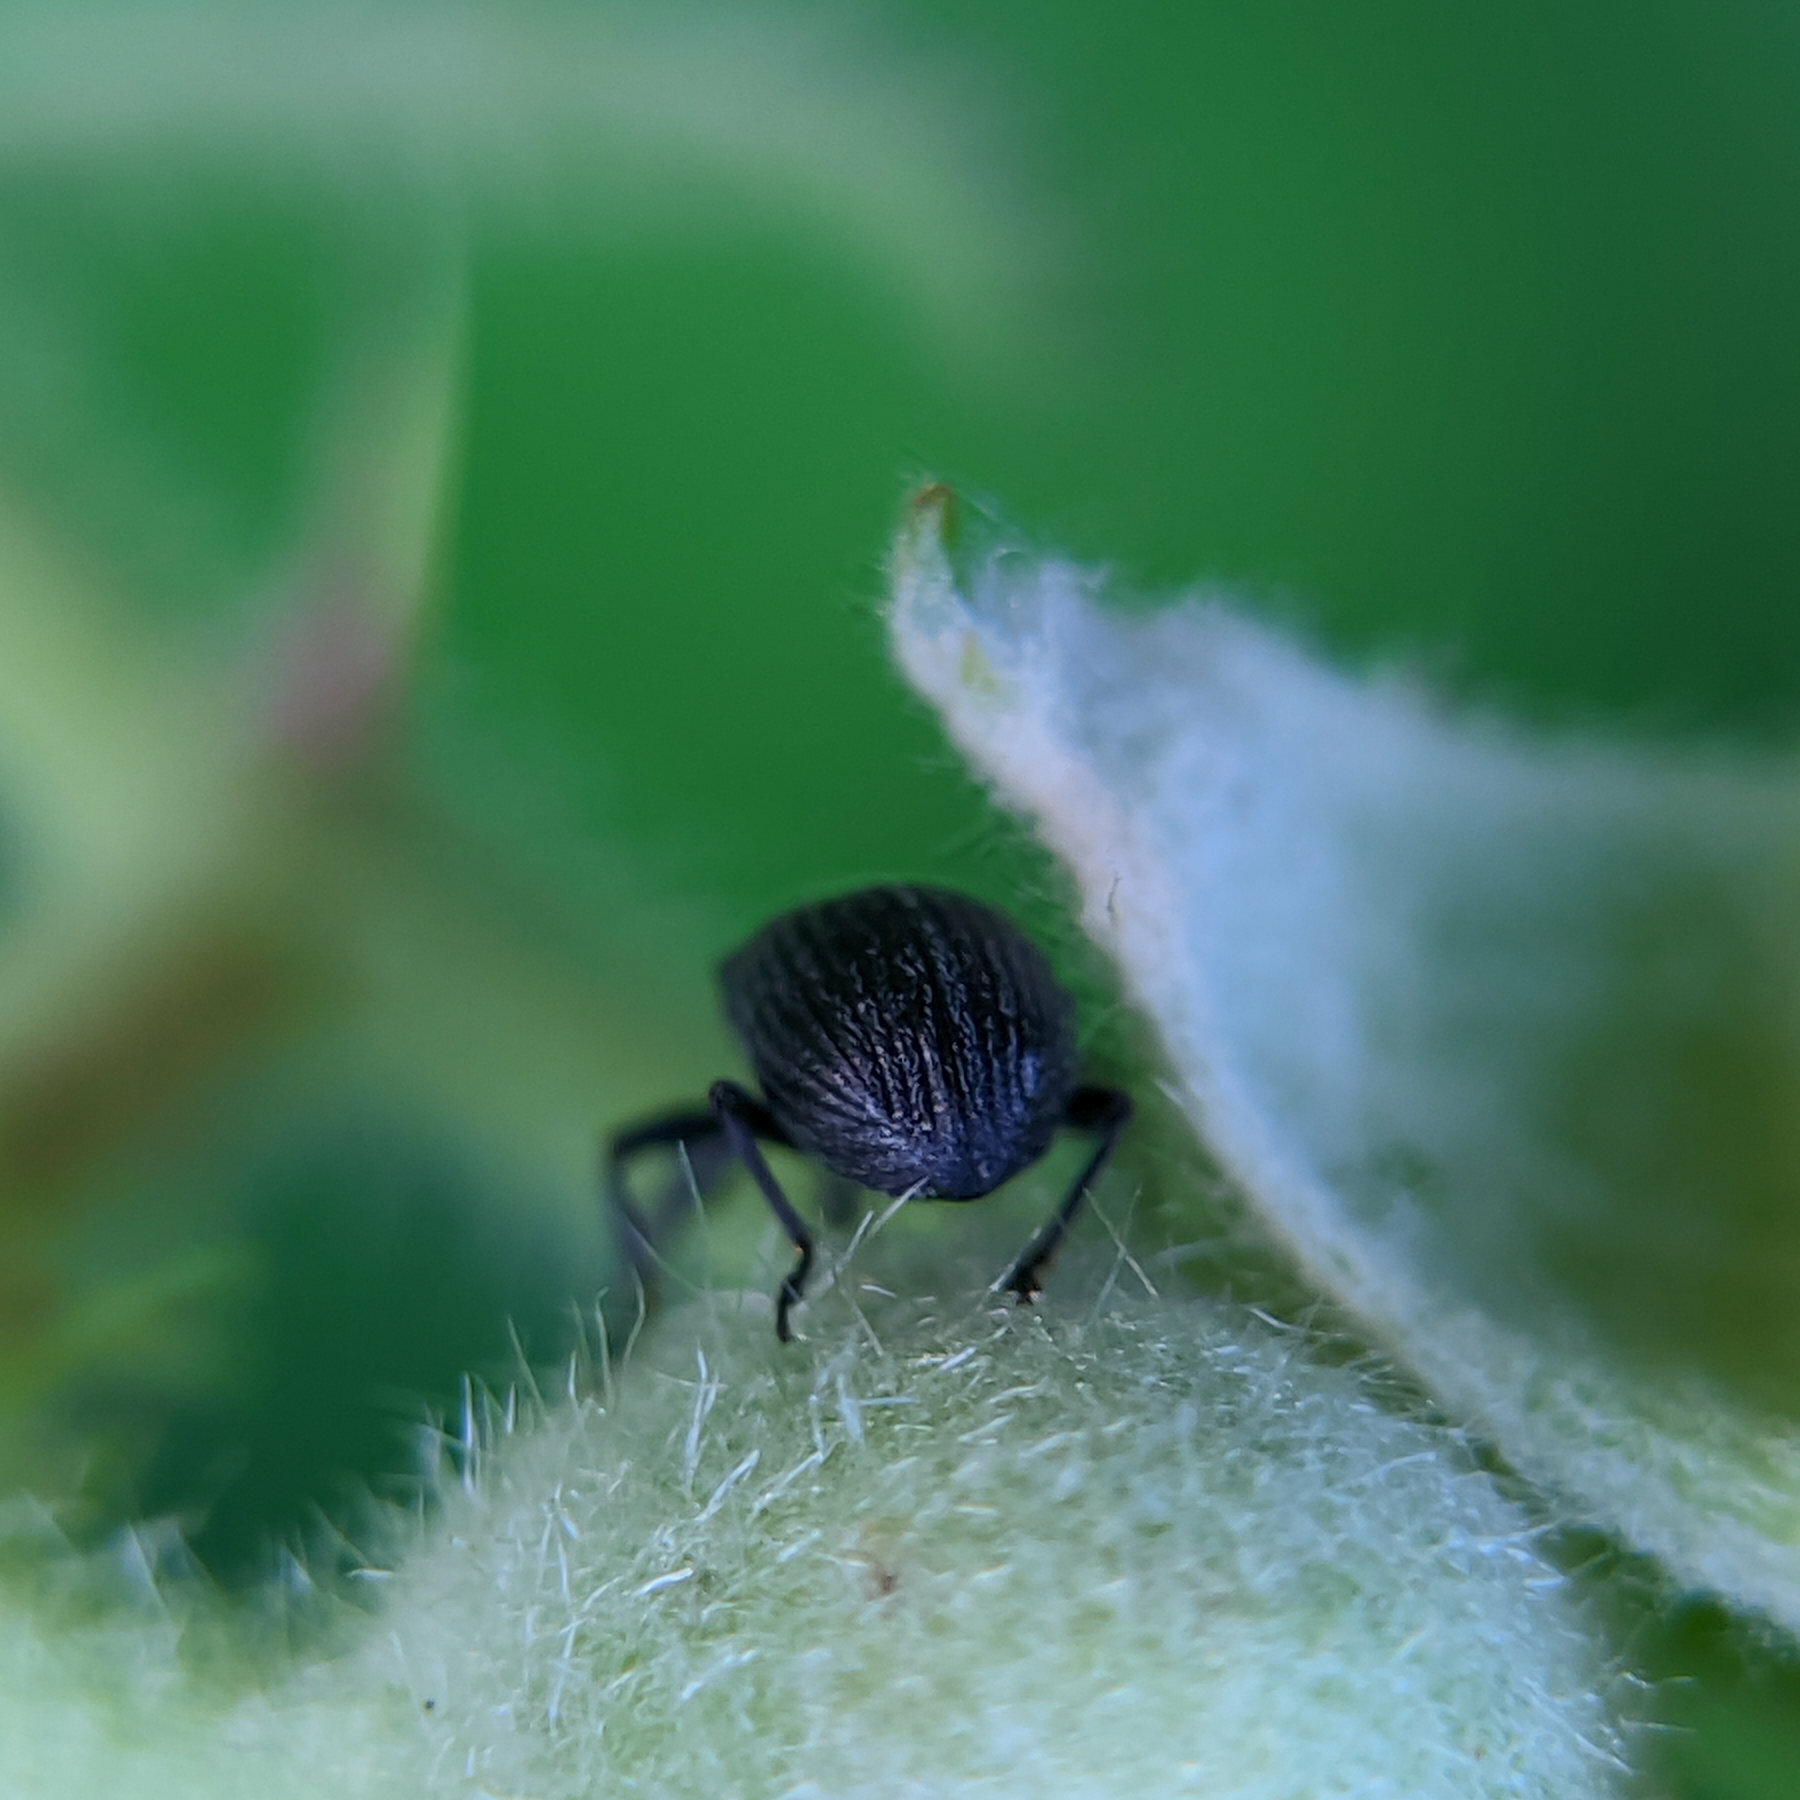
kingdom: Animalia
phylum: Arthropoda
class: Insecta
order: Coleoptera
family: Curculionidae
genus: Anthonomus
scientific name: Anthonomus rubi
